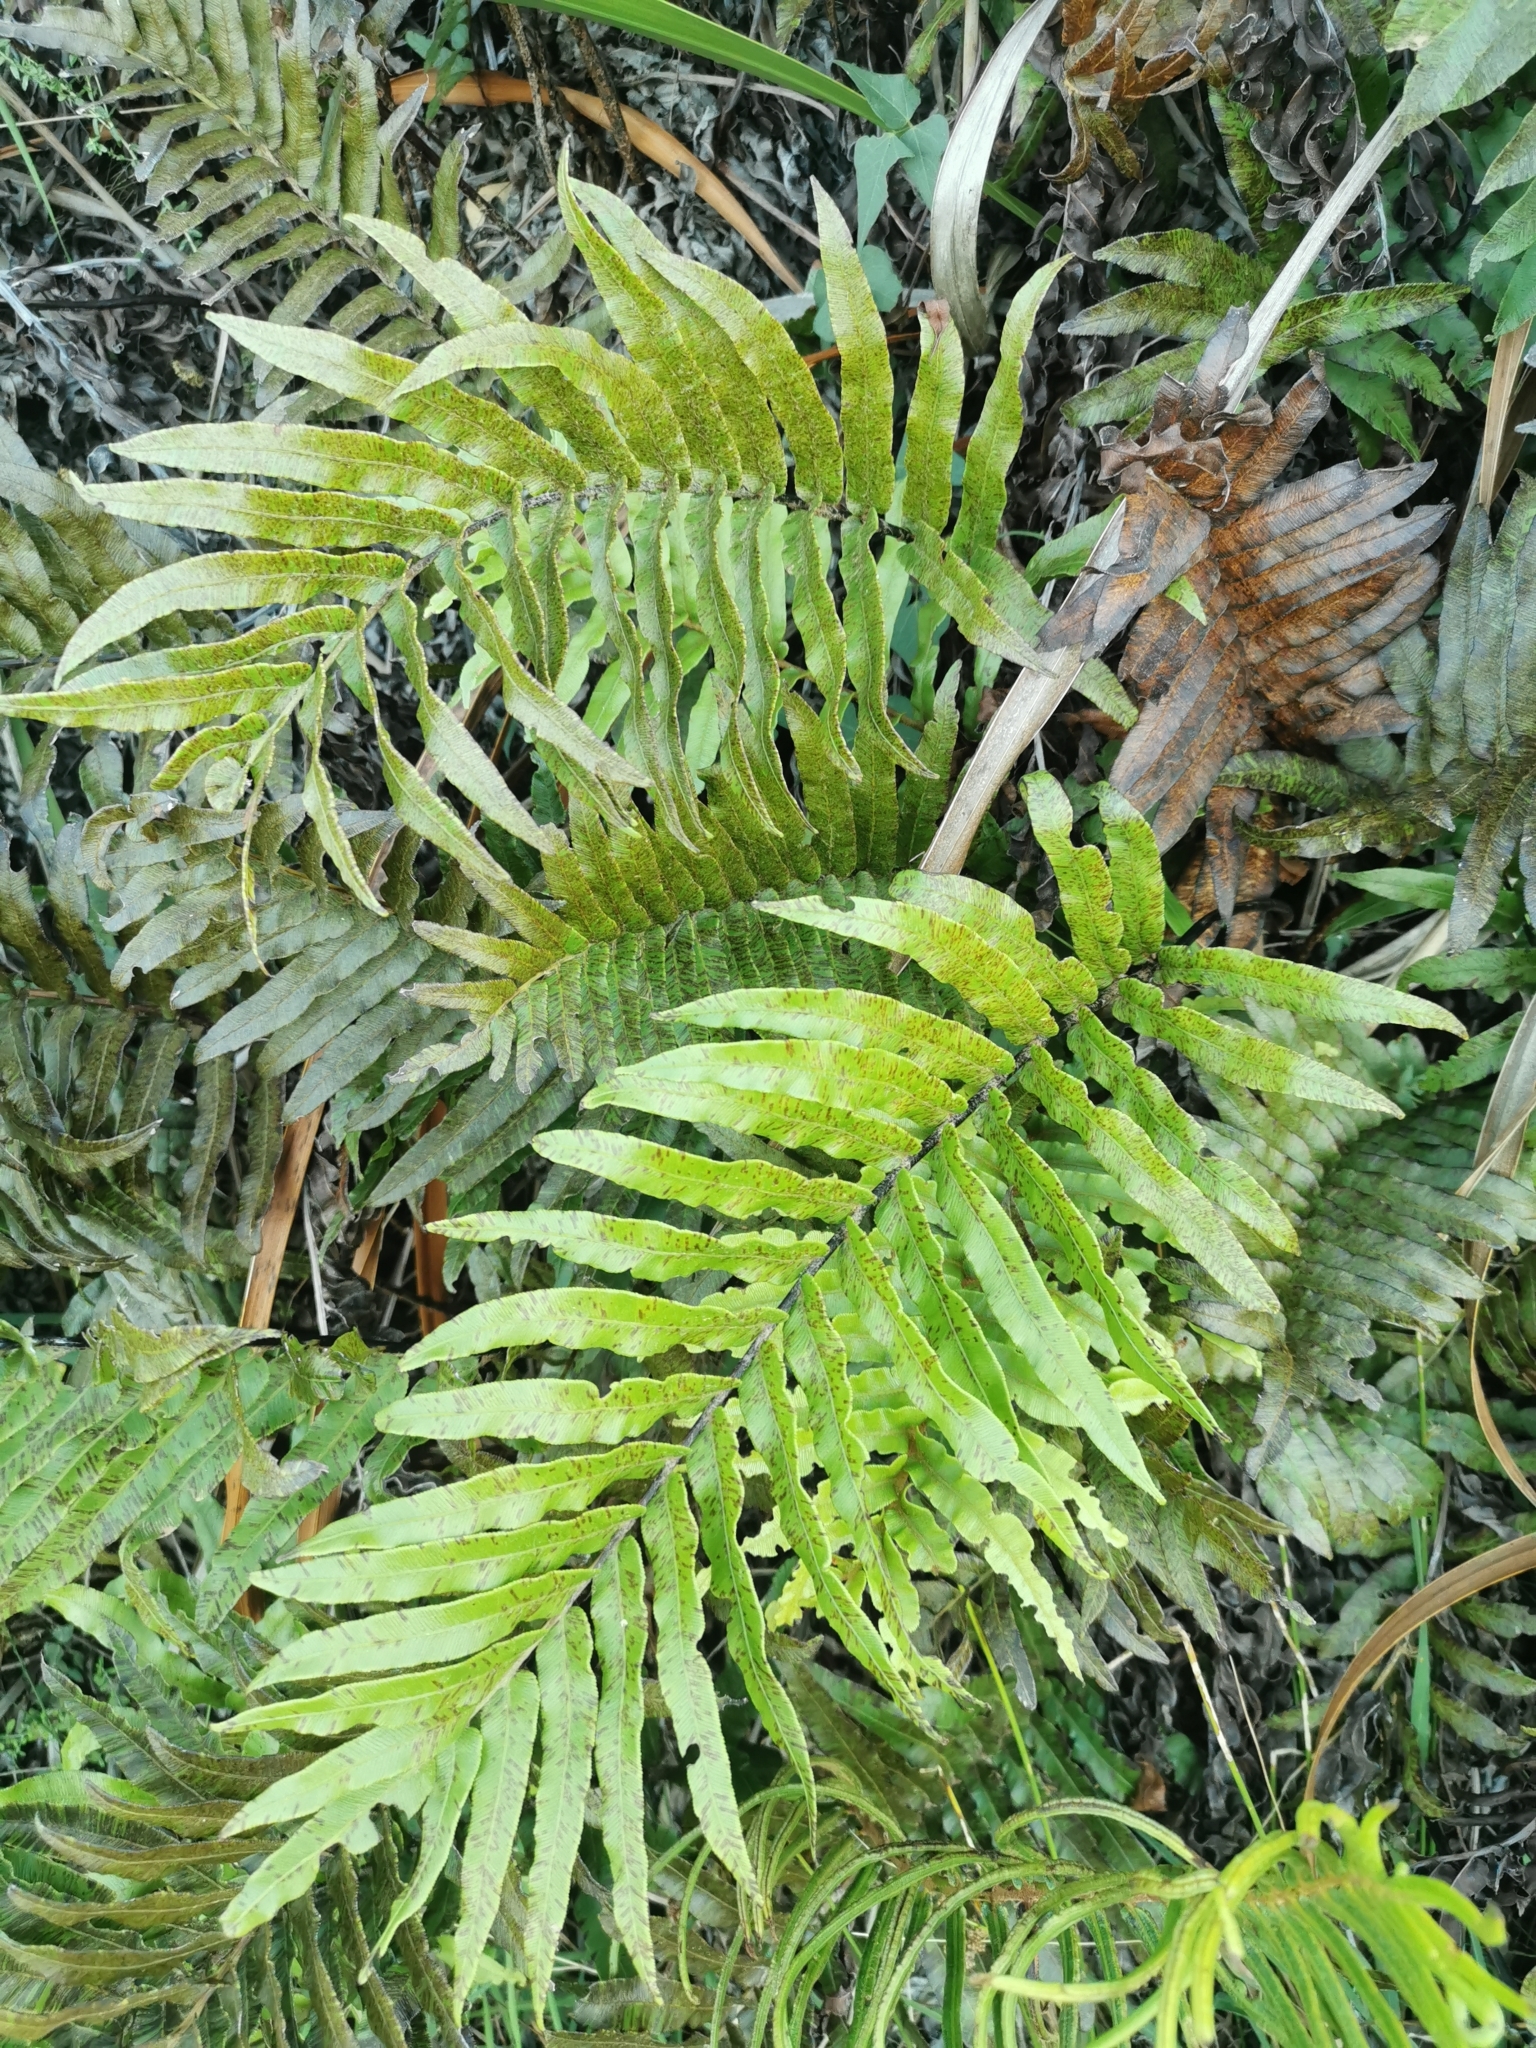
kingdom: Plantae
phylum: Tracheophyta
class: Polypodiopsida
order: Polypodiales
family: Blechnaceae
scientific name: Blechnaceae
